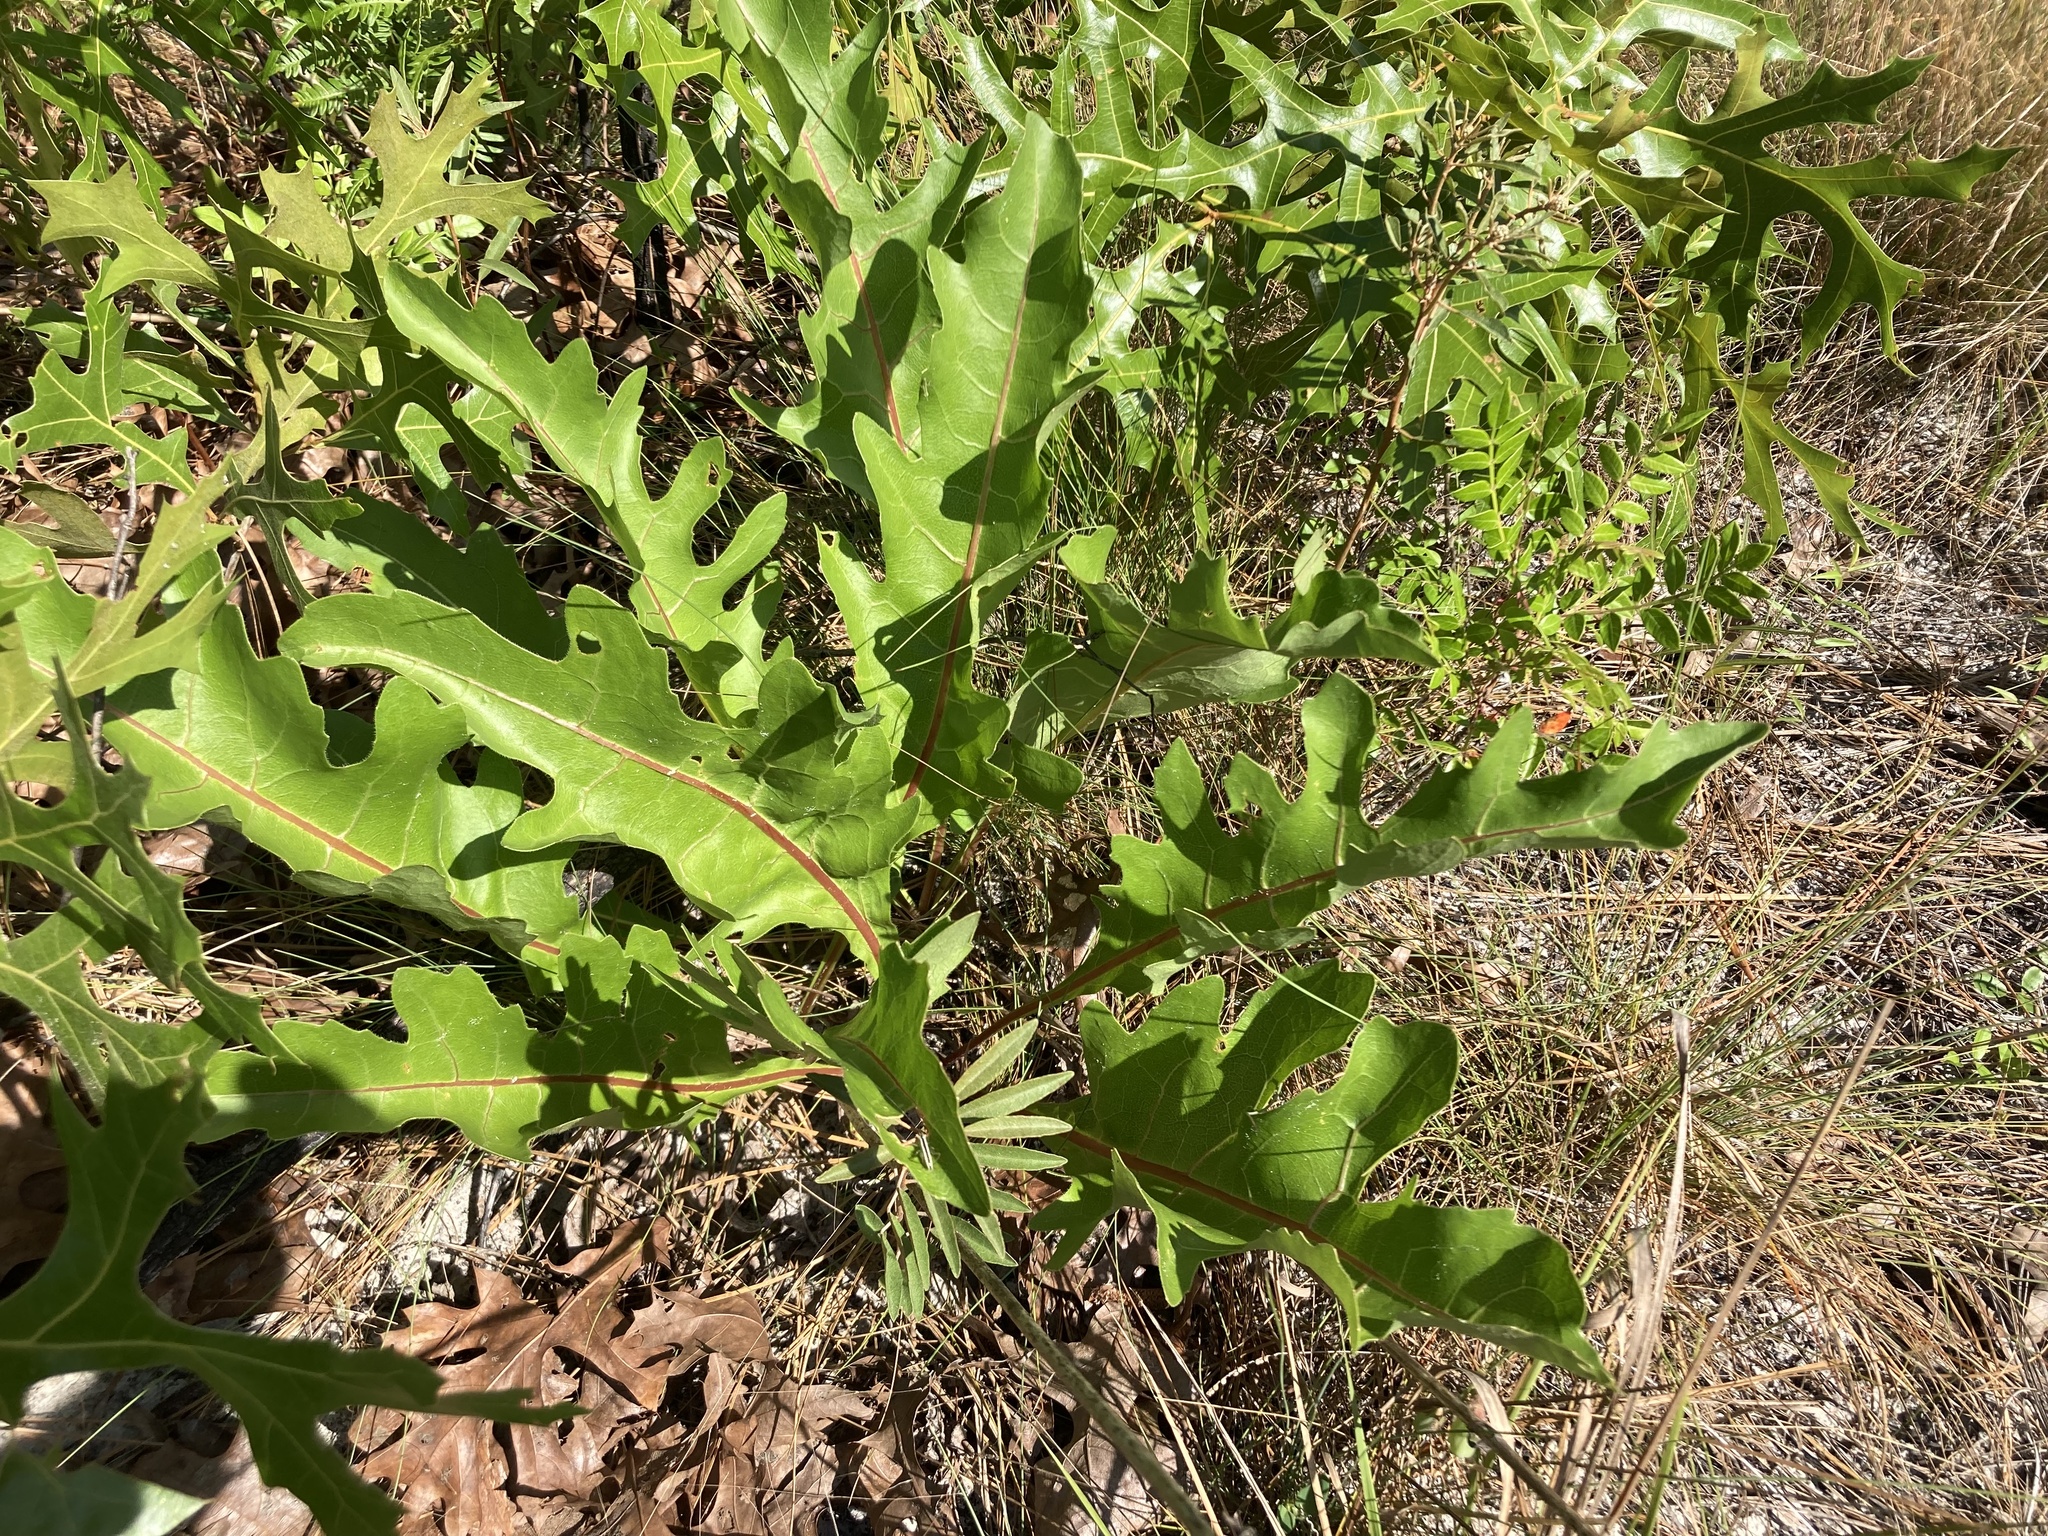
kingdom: Plantae
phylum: Tracheophyta
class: Magnoliopsida
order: Asterales
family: Asteraceae
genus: Silphium
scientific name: Silphium compositum
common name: Lesser basal-leaf rosinweed
